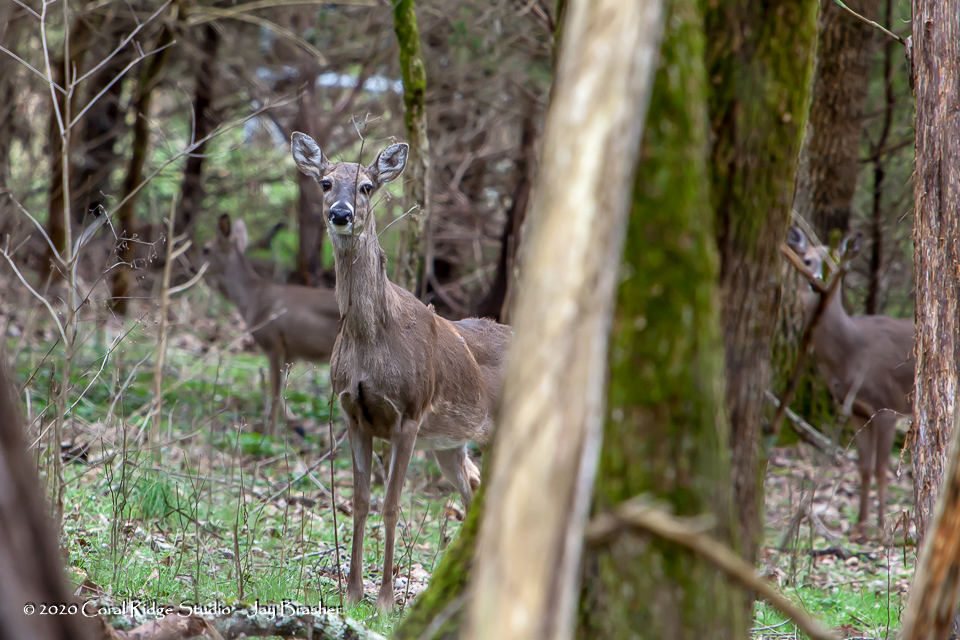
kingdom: Animalia
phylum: Chordata
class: Mammalia
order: Artiodactyla
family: Cervidae
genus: Odocoileus
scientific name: Odocoileus virginianus
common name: White-tailed deer
